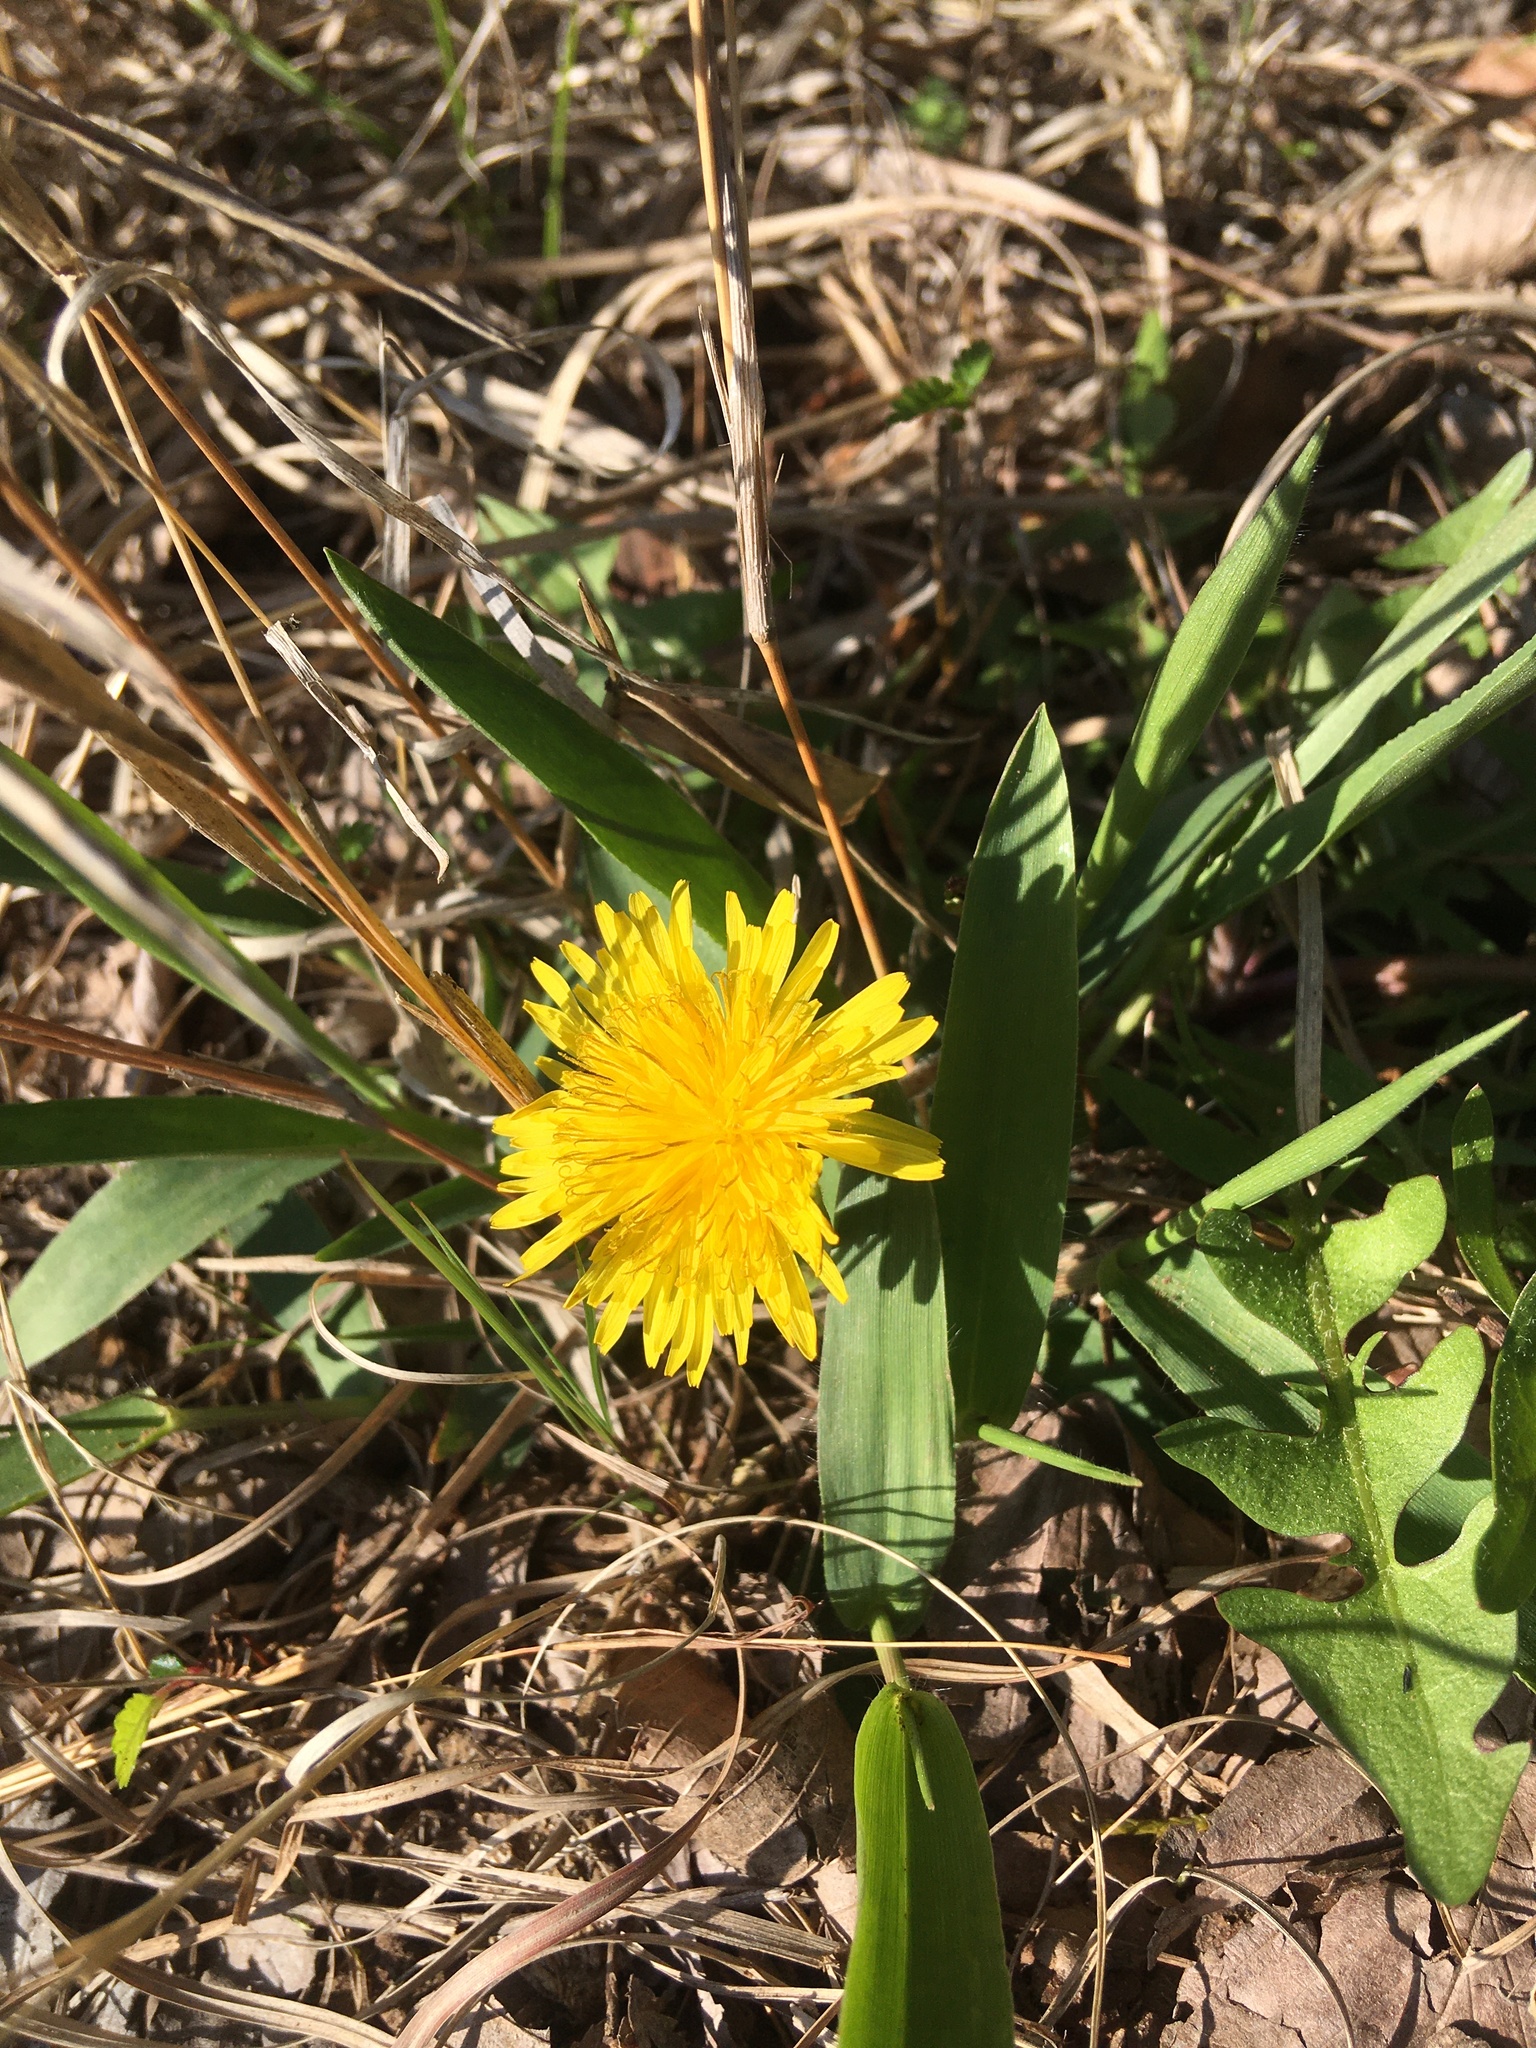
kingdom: Plantae
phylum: Tracheophyta
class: Magnoliopsida
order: Asterales
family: Asteraceae
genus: Taraxacum
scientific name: Taraxacum officinale
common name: Common dandelion
